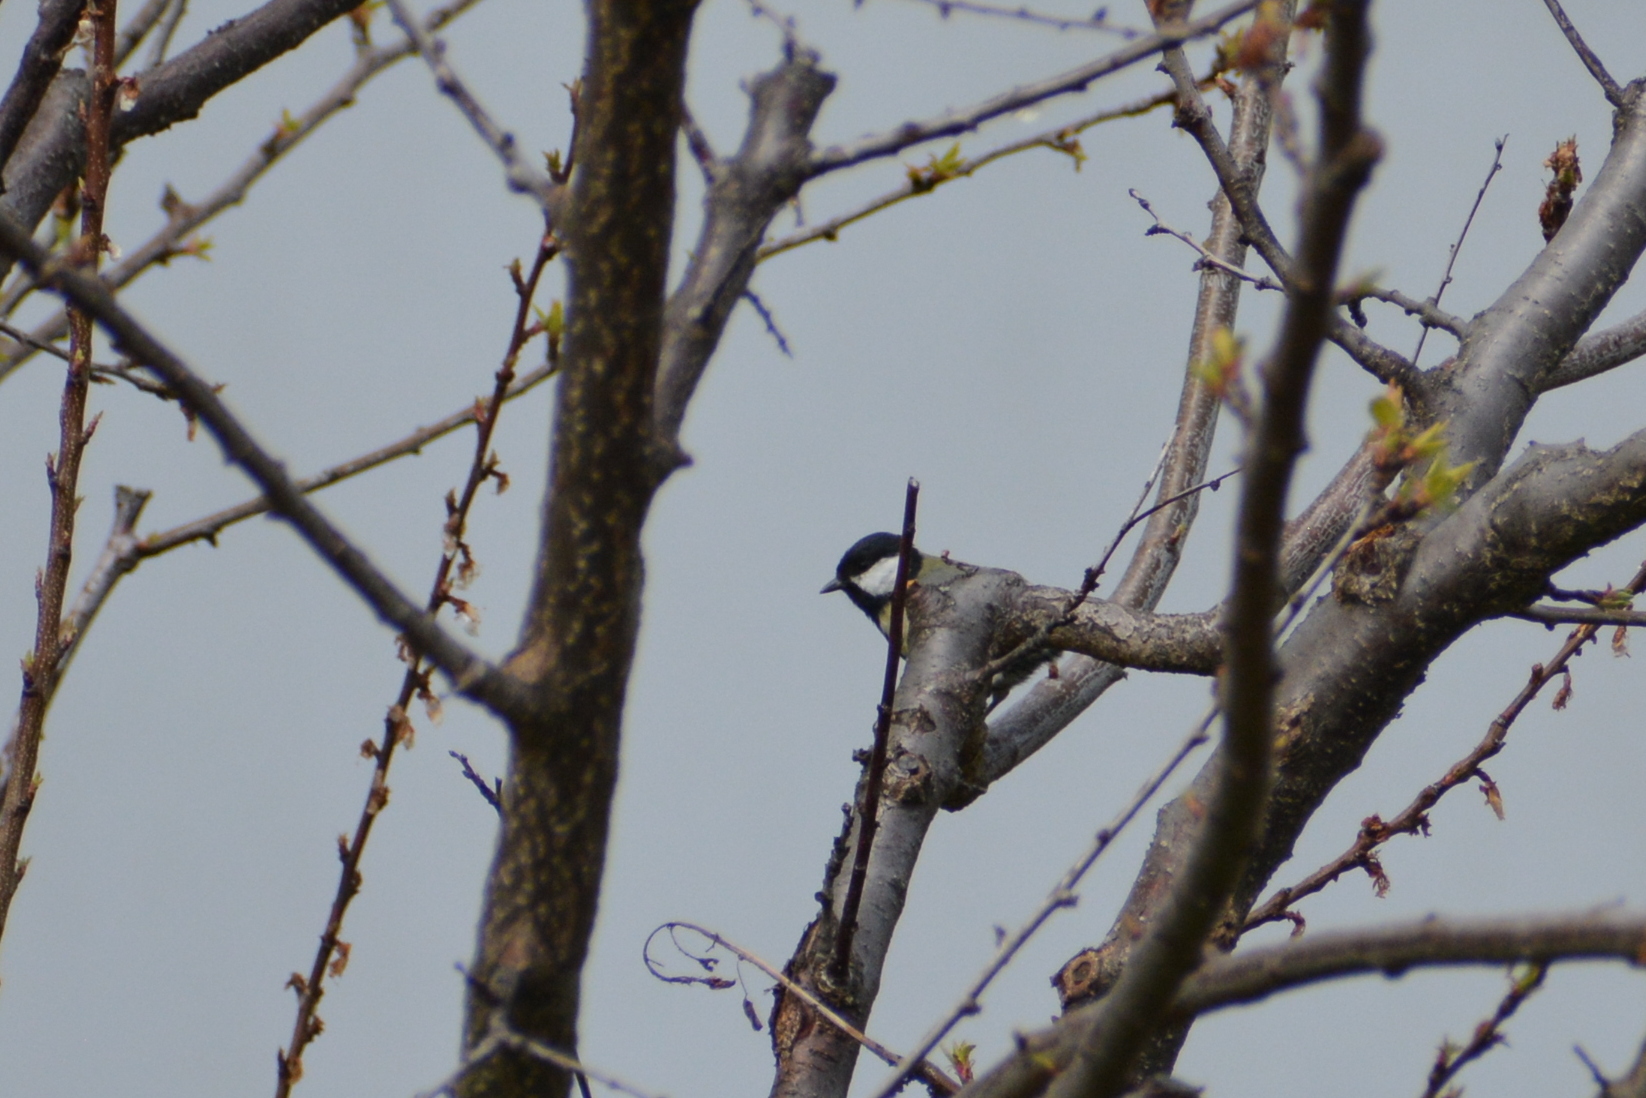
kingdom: Animalia
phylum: Chordata
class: Aves
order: Passeriformes
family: Paridae
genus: Parus
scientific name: Parus major
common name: Great tit
